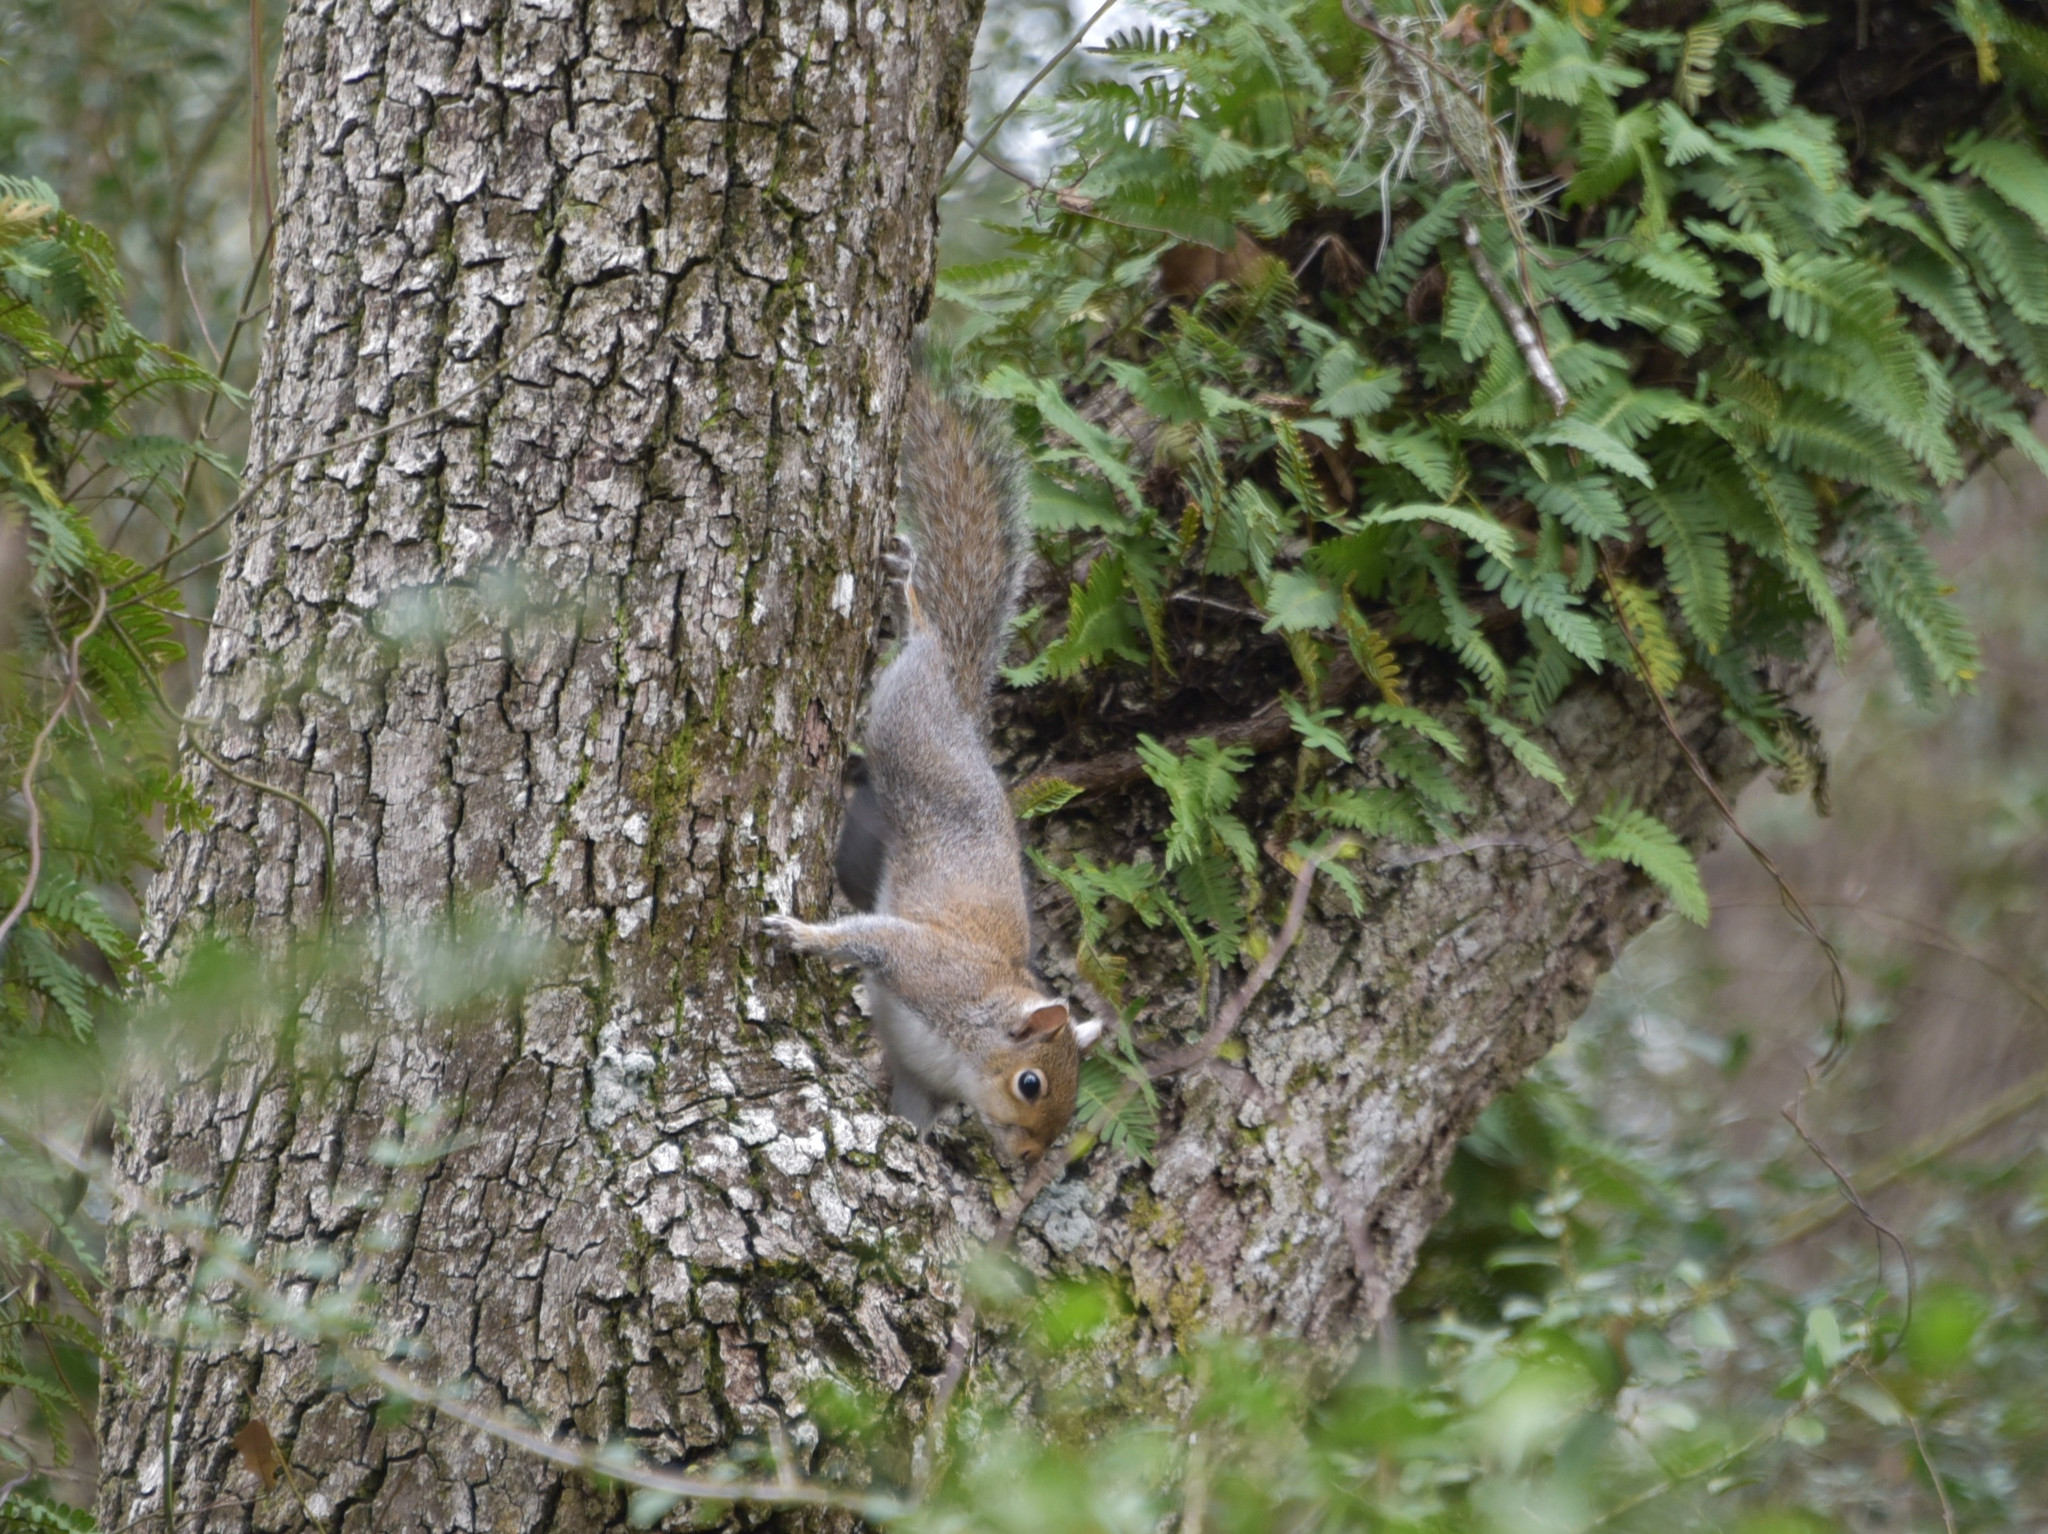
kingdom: Animalia
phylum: Chordata
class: Mammalia
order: Rodentia
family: Sciuridae
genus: Sciurus
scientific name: Sciurus carolinensis
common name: Eastern gray squirrel
